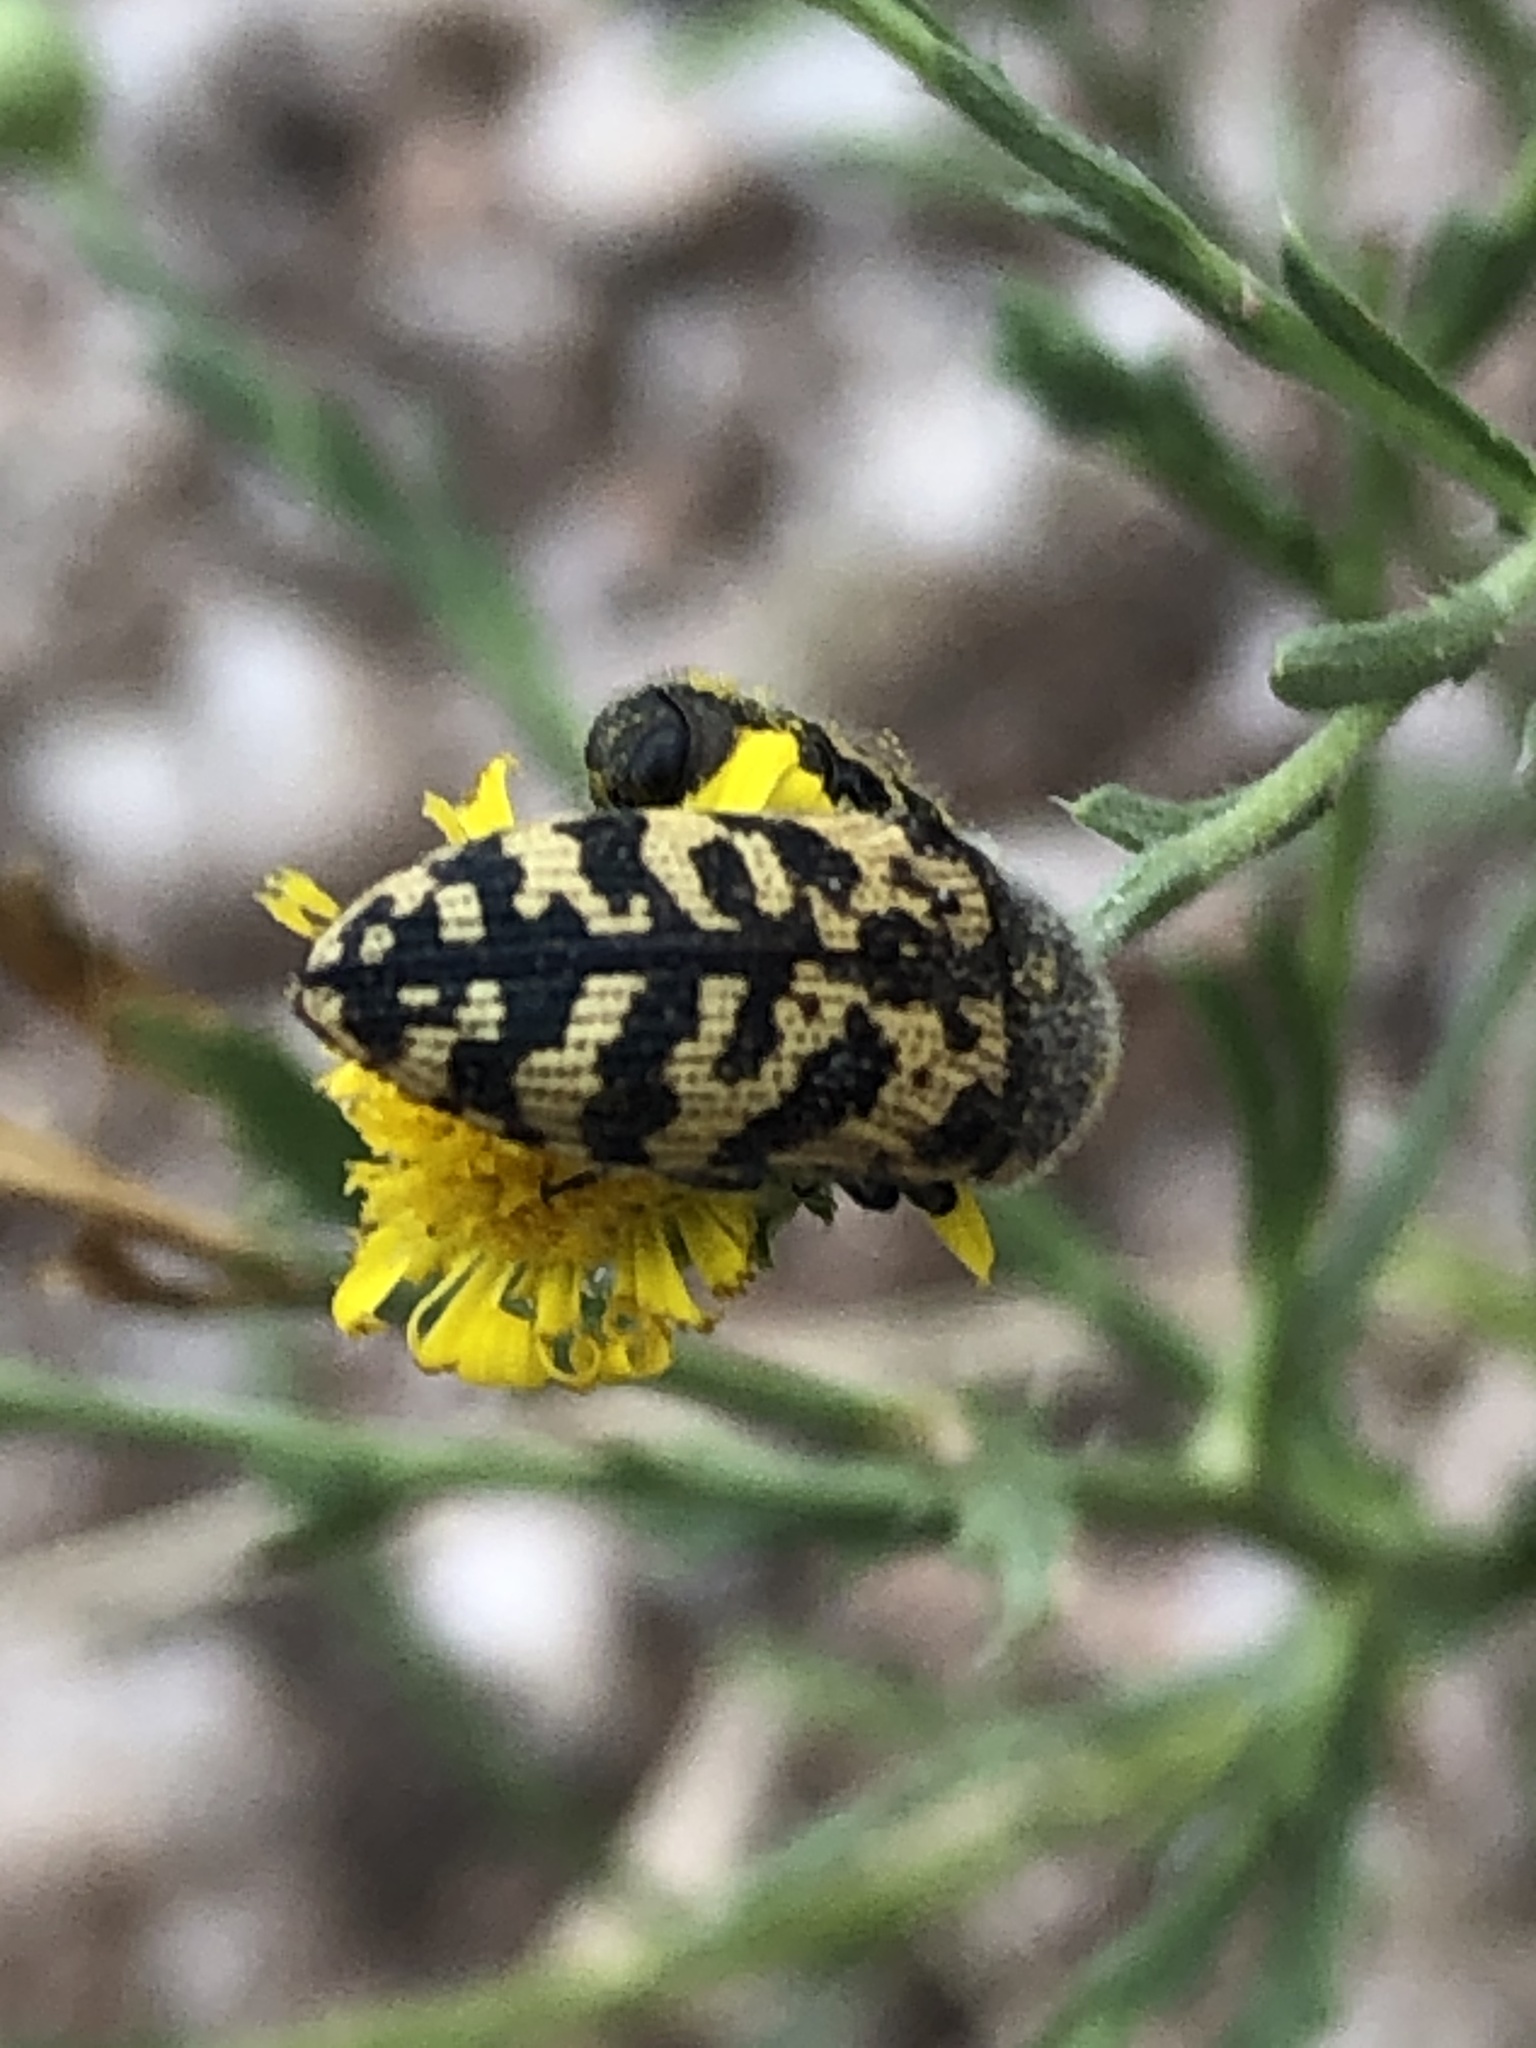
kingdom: Animalia
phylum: Arthropoda
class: Insecta
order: Coleoptera
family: Buprestidae
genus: Acmaeodera
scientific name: Acmaeodera mixta
